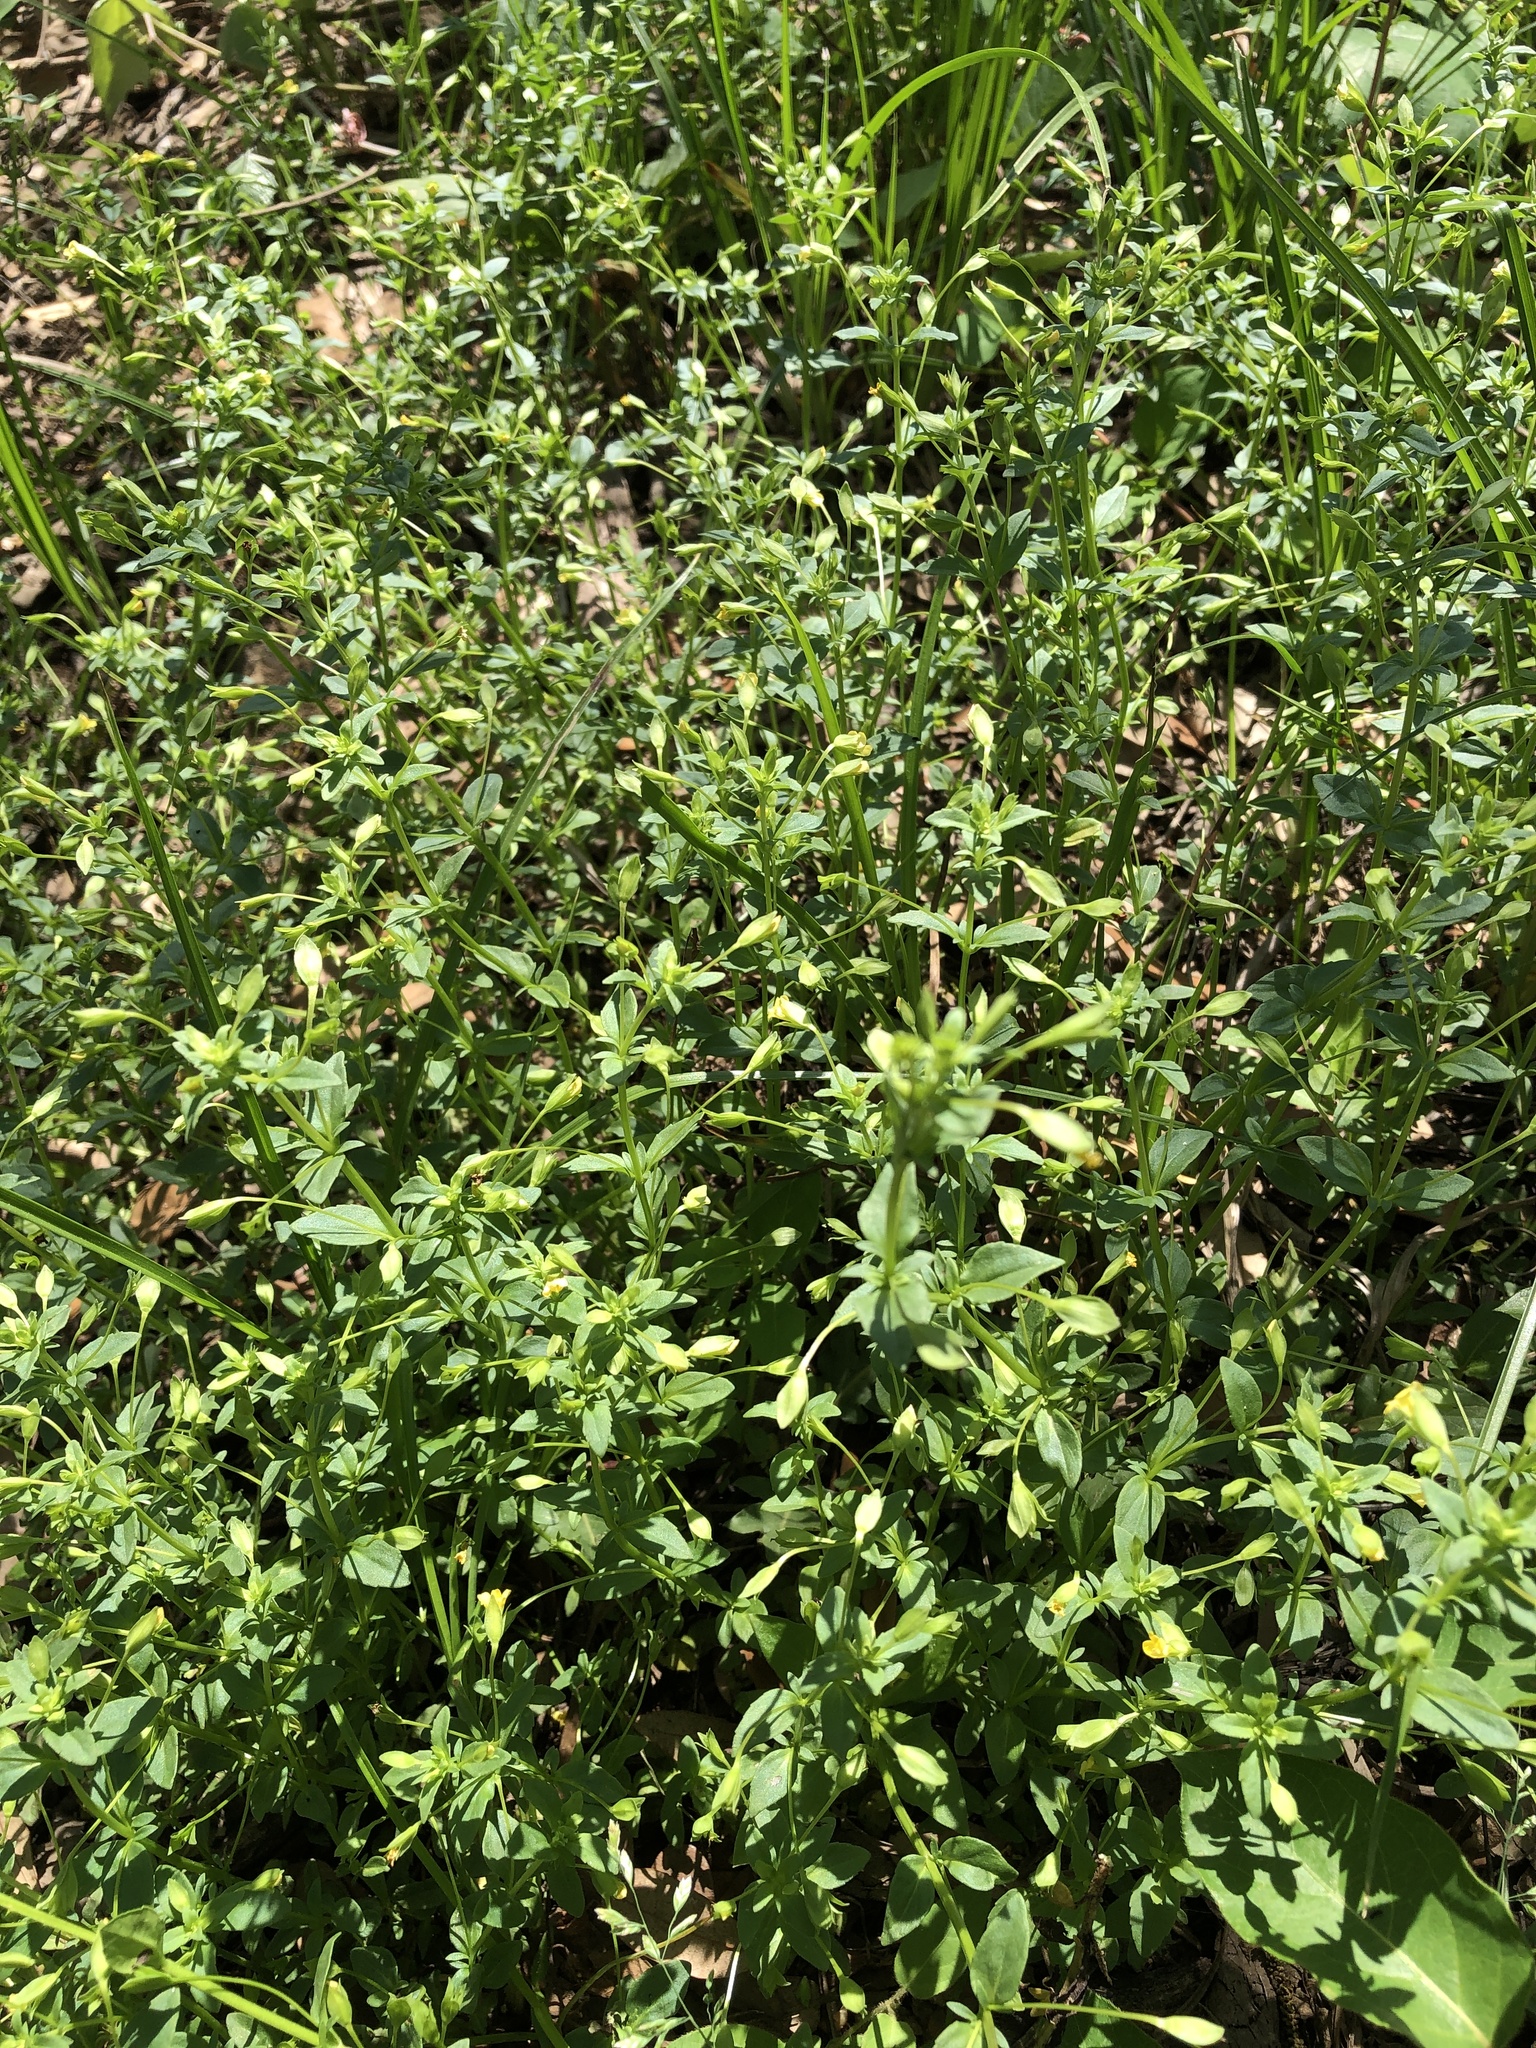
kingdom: Plantae
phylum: Tracheophyta
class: Magnoliopsida
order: Lamiales
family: Plantaginaceae
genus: Mecardonia
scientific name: Mecardonia procumbens
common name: Baby jump-up
